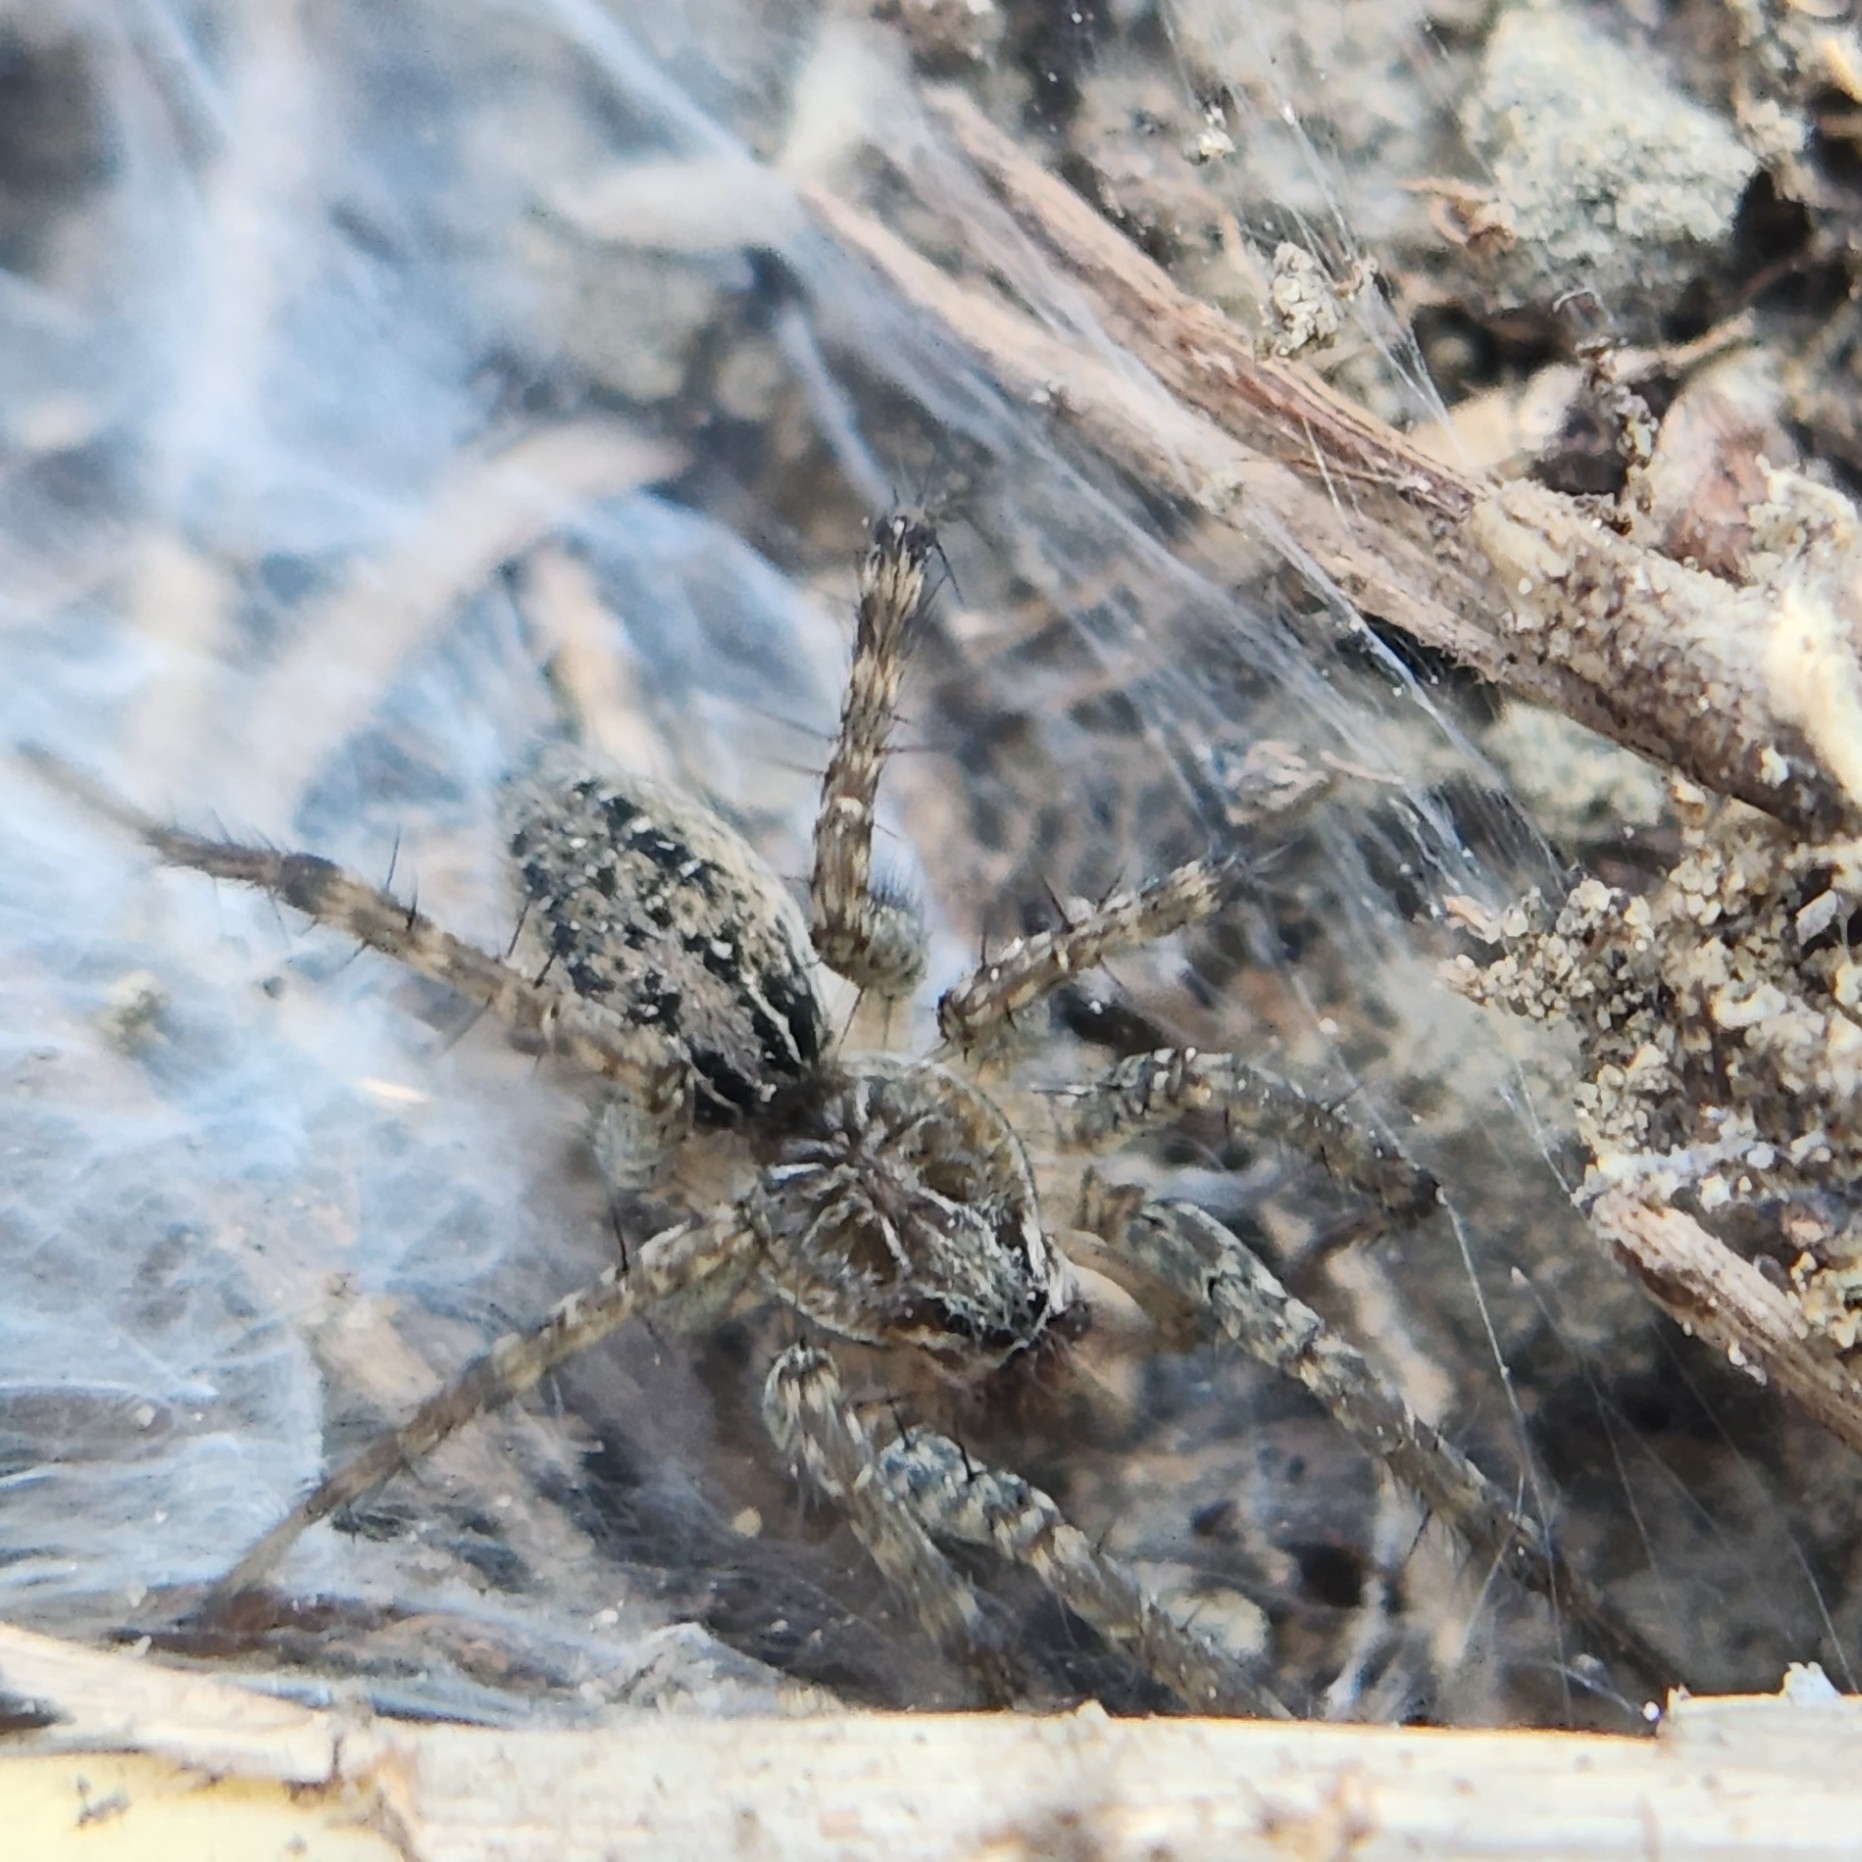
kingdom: Animalia
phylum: Arthropoda
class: Arachnida
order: Araneae
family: Lycosidae
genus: Hippasa
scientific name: Hippasa holmerae
